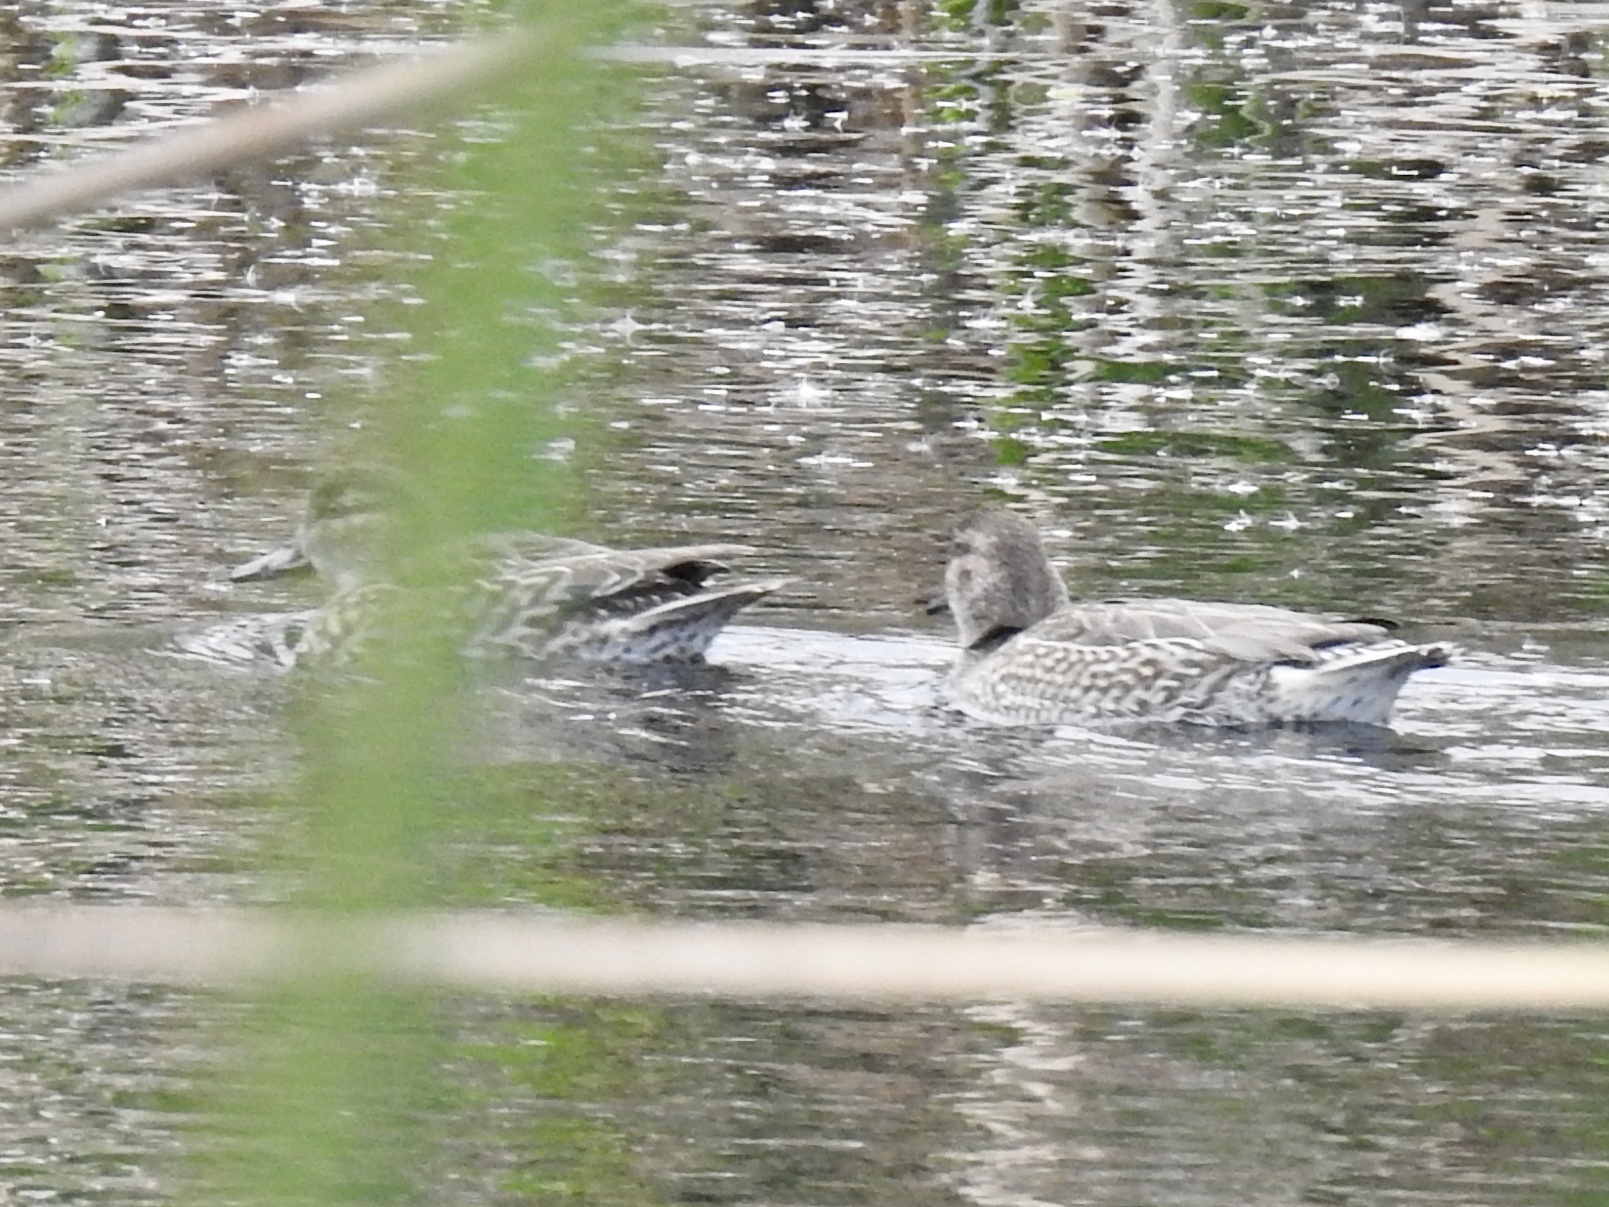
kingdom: Animalia
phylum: Chordata
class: Aves
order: Anseriformes
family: Anatidae
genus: Anas
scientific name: Anas crecca
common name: Eurasian teal
